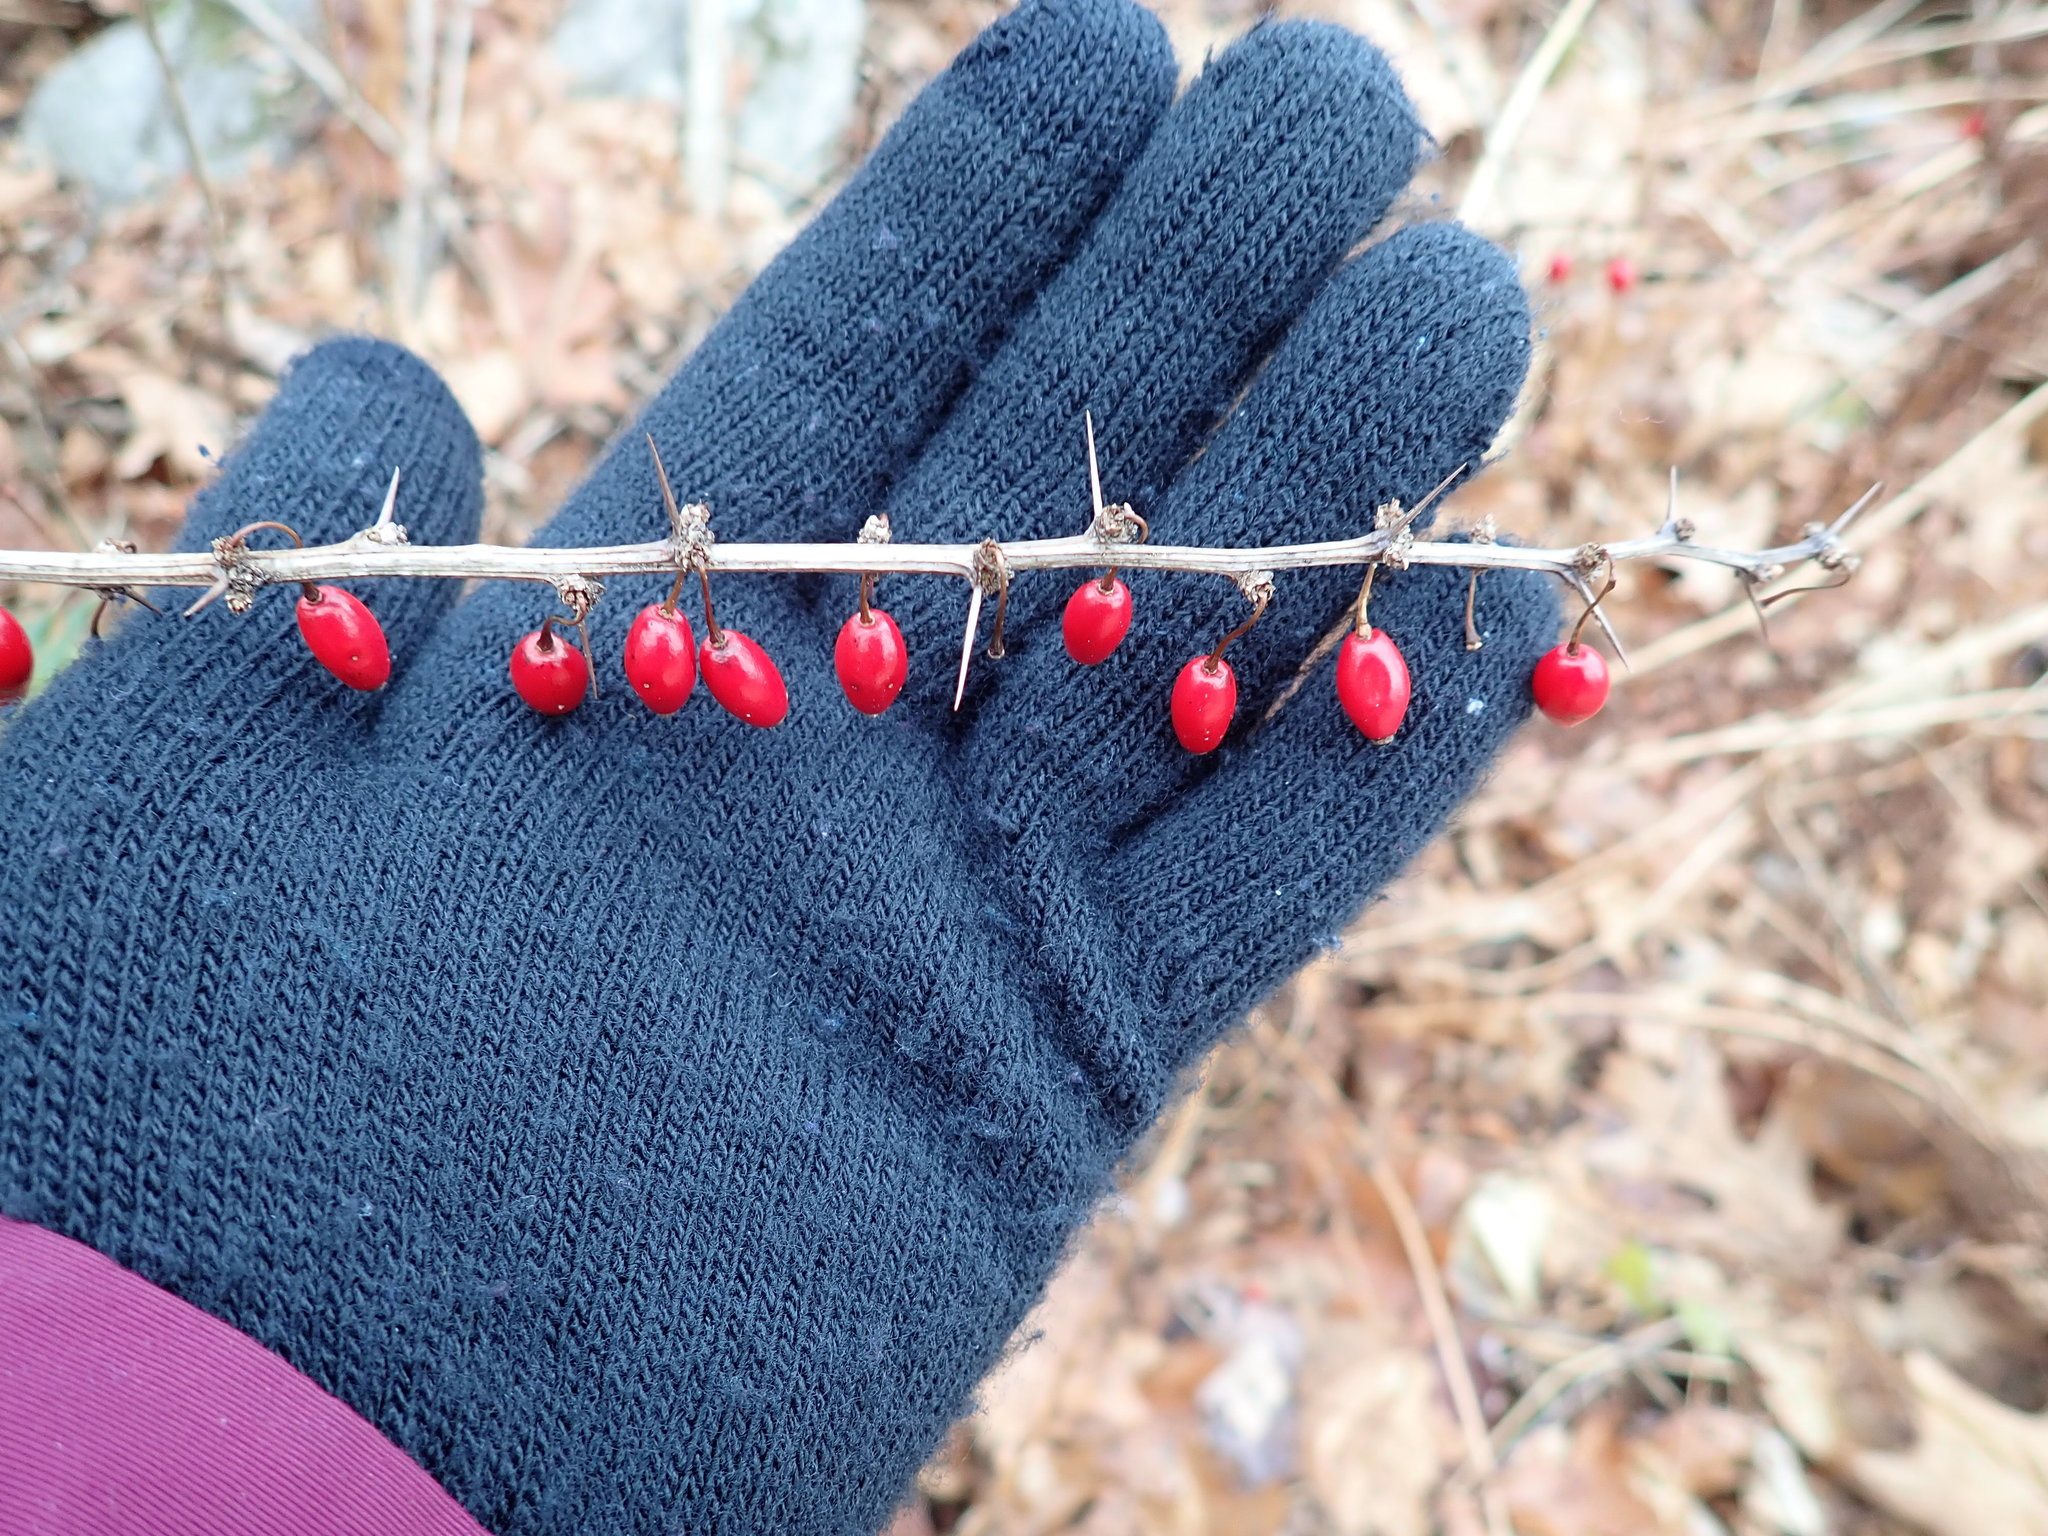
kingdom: Plantae
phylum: Tracheophyta
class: Magnoliopsida
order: Ranunculales
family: Berberidaceae
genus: Berberis
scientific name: Berberis thunbergii
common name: Japanese barberry
